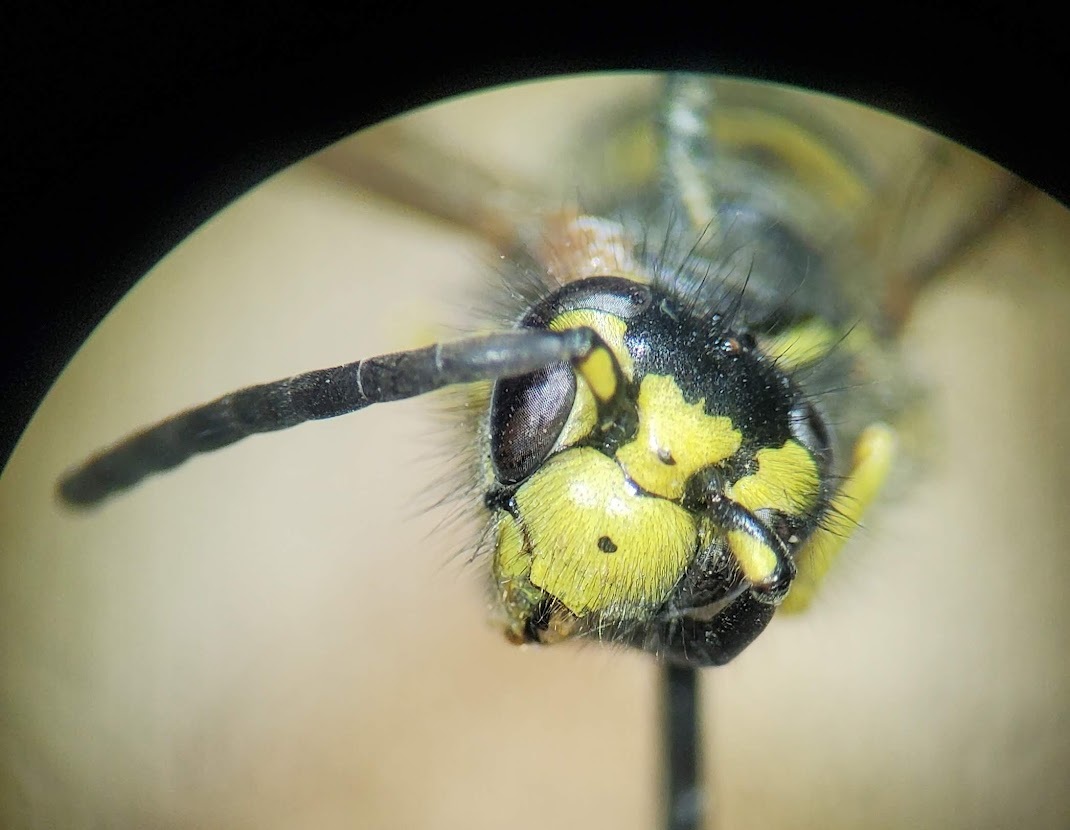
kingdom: Animalia
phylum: Arthropoda
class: Insecta
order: Hymenoptera
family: Vespidae
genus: Vespula
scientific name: Vespula maculifrons
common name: Eastern yellowjacket
